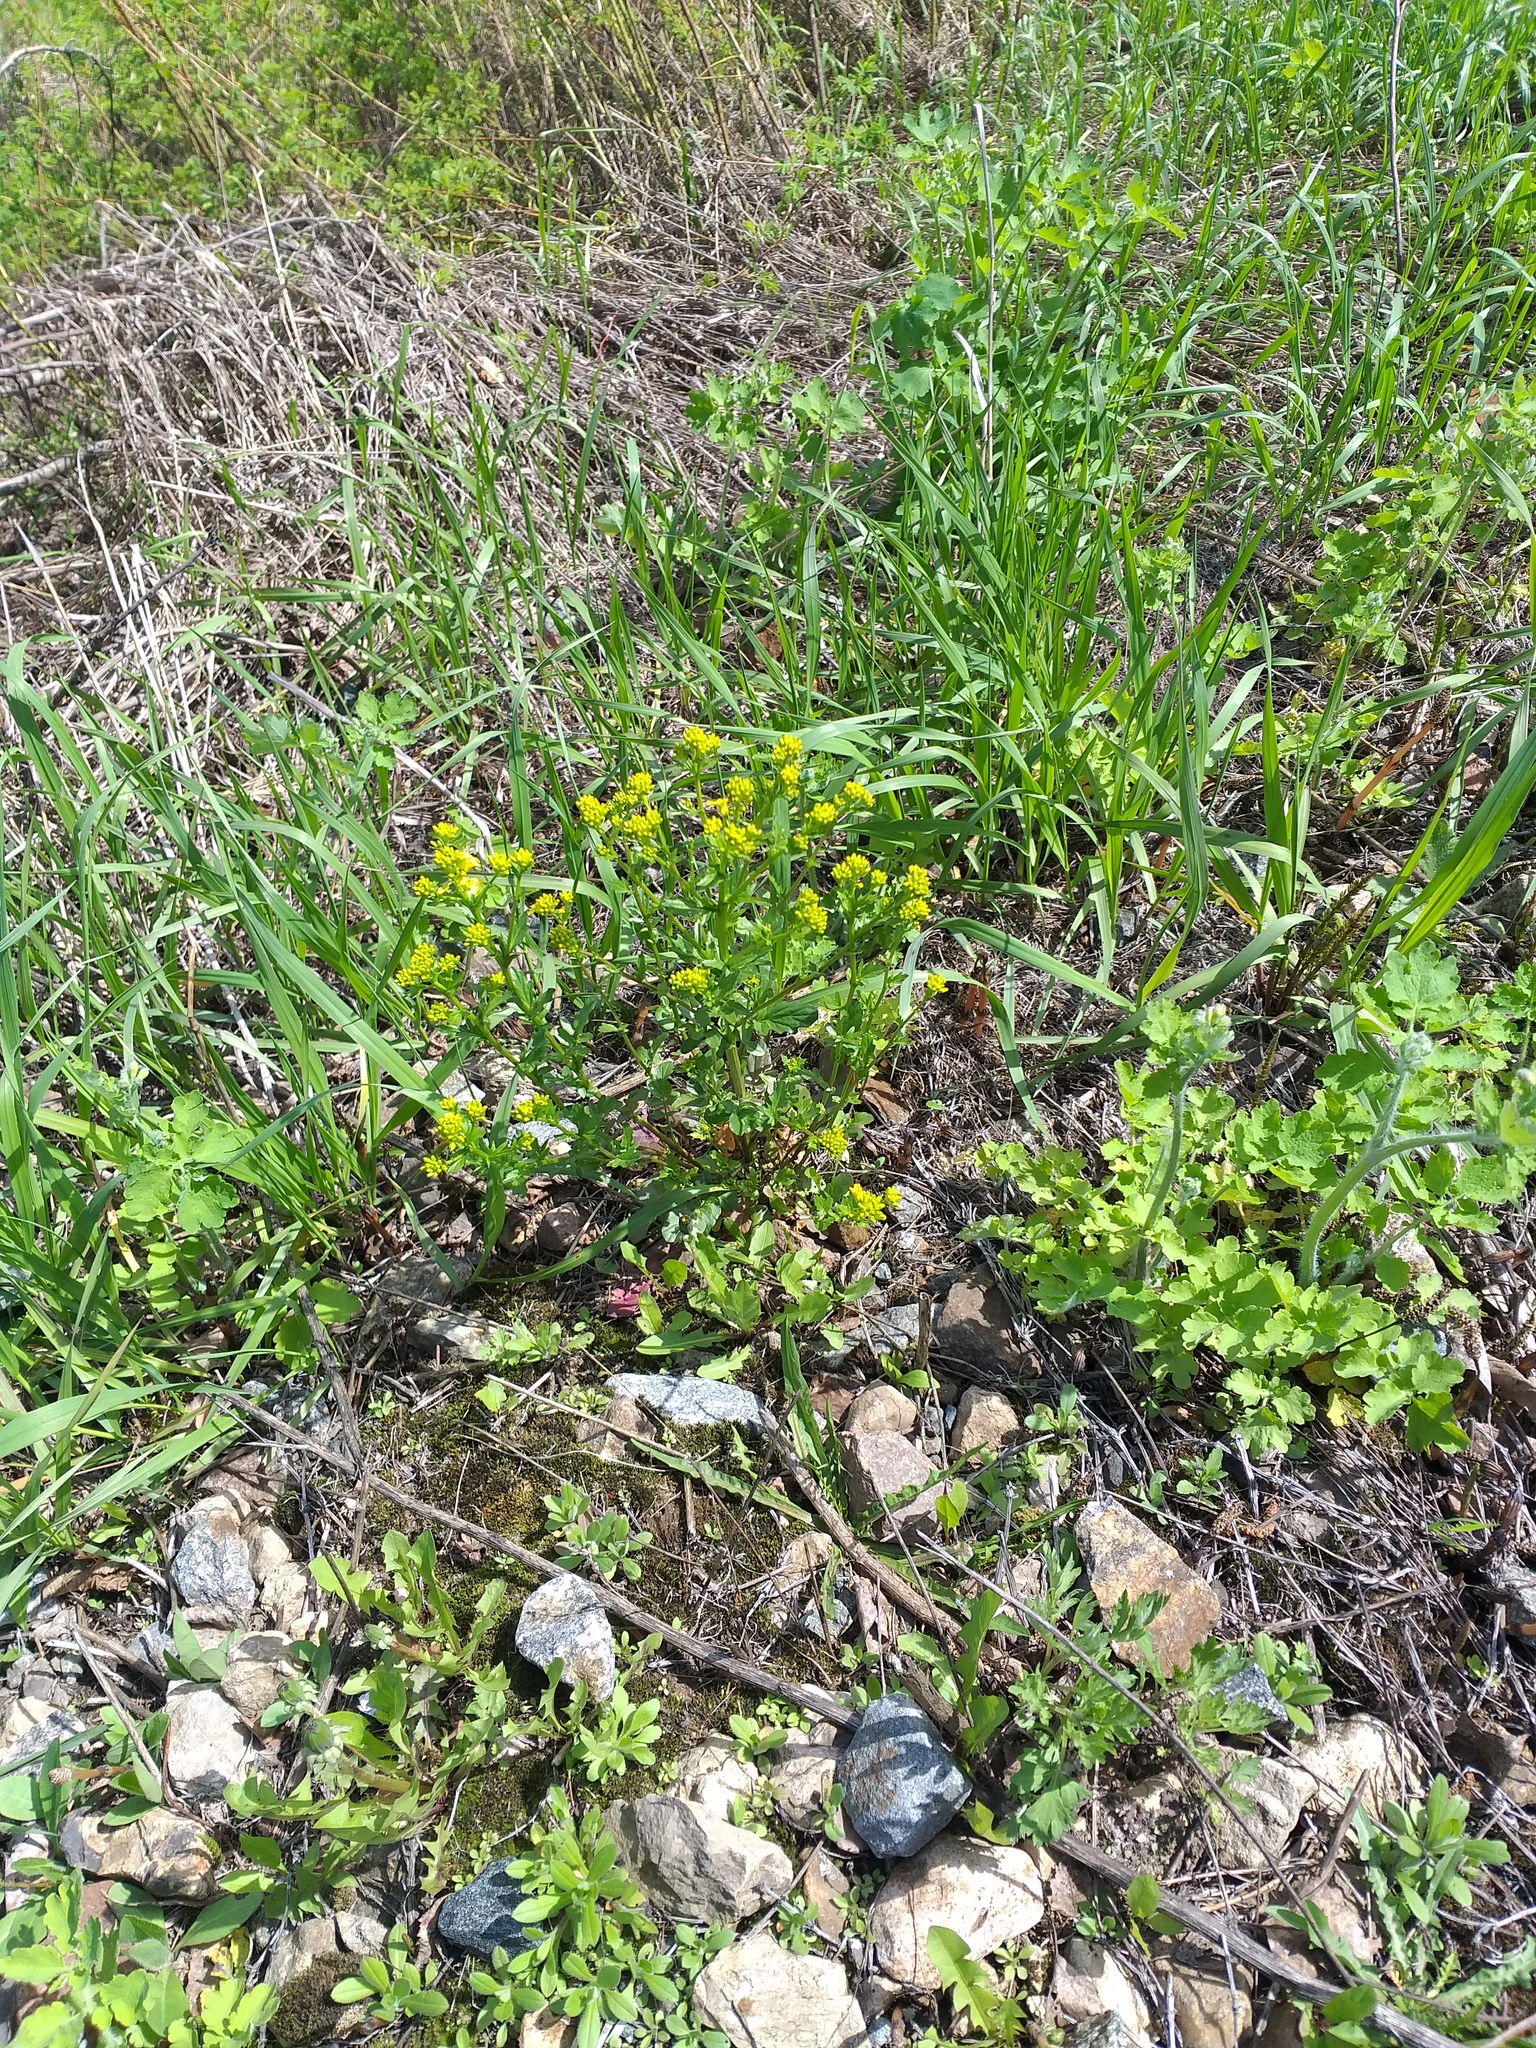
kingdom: Plantae
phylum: Tracheophyta
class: Magnoliopsida
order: Brassicales
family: Brassicaceae
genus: Barbarea
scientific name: Barbarea vulgaris
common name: Cressy-greens
